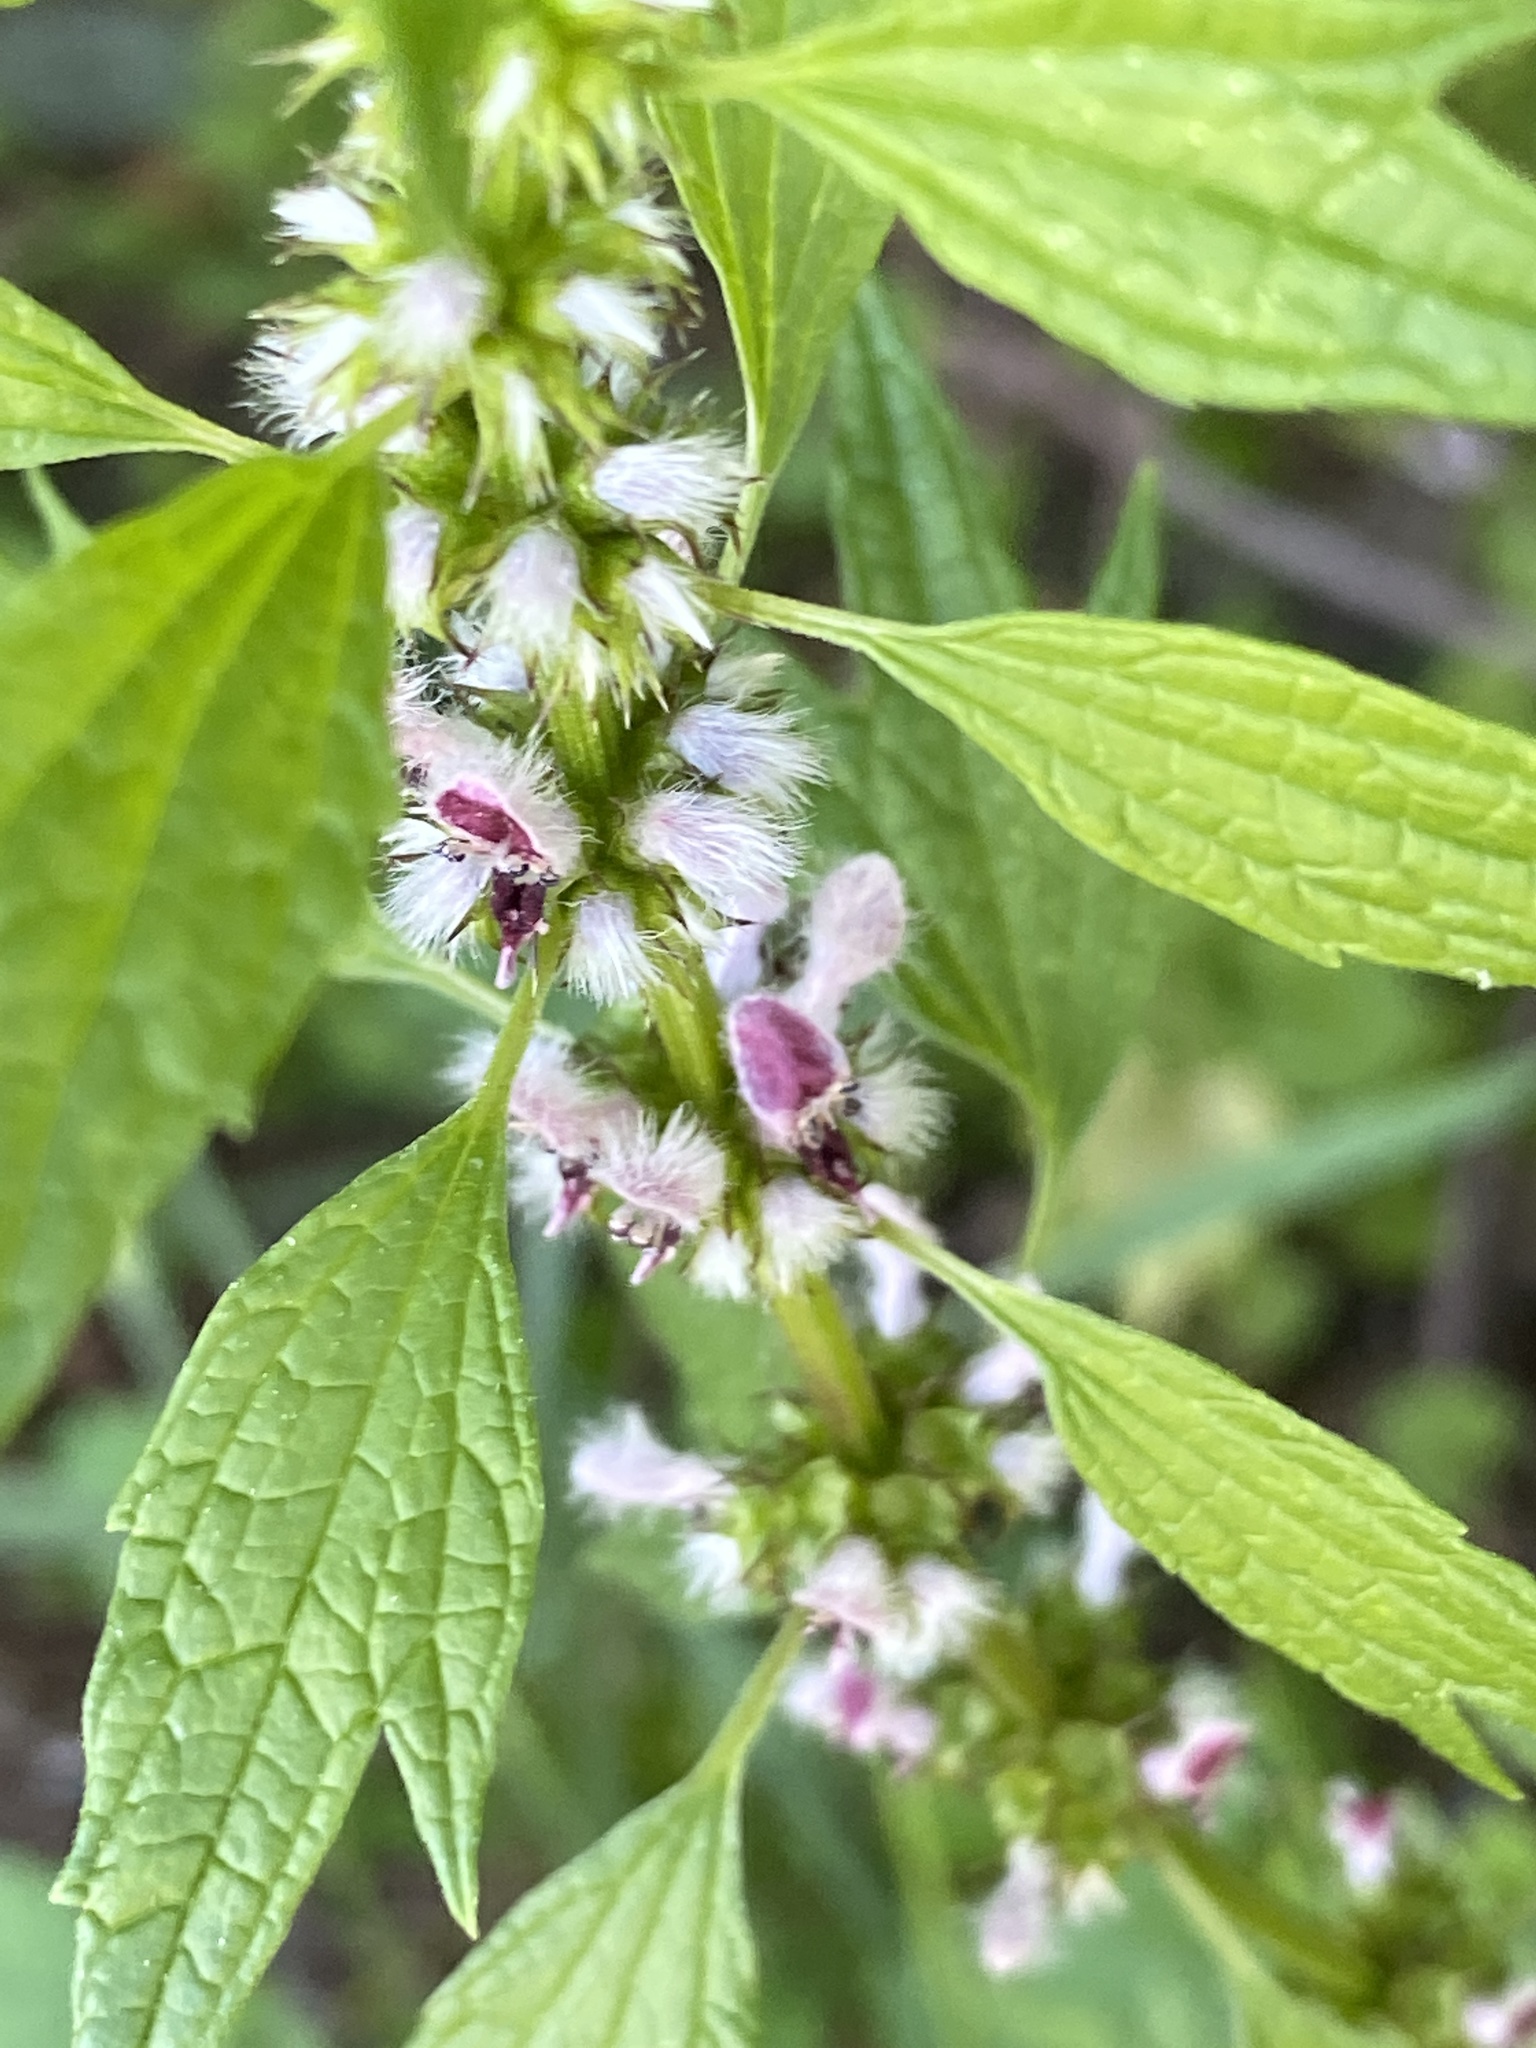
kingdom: Plantae
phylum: Tracheophyta
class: Magnoliopsida
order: Lamiales
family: Lamiaceae
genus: Leonurus
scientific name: Leonurus cardiaca
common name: Motherwort
